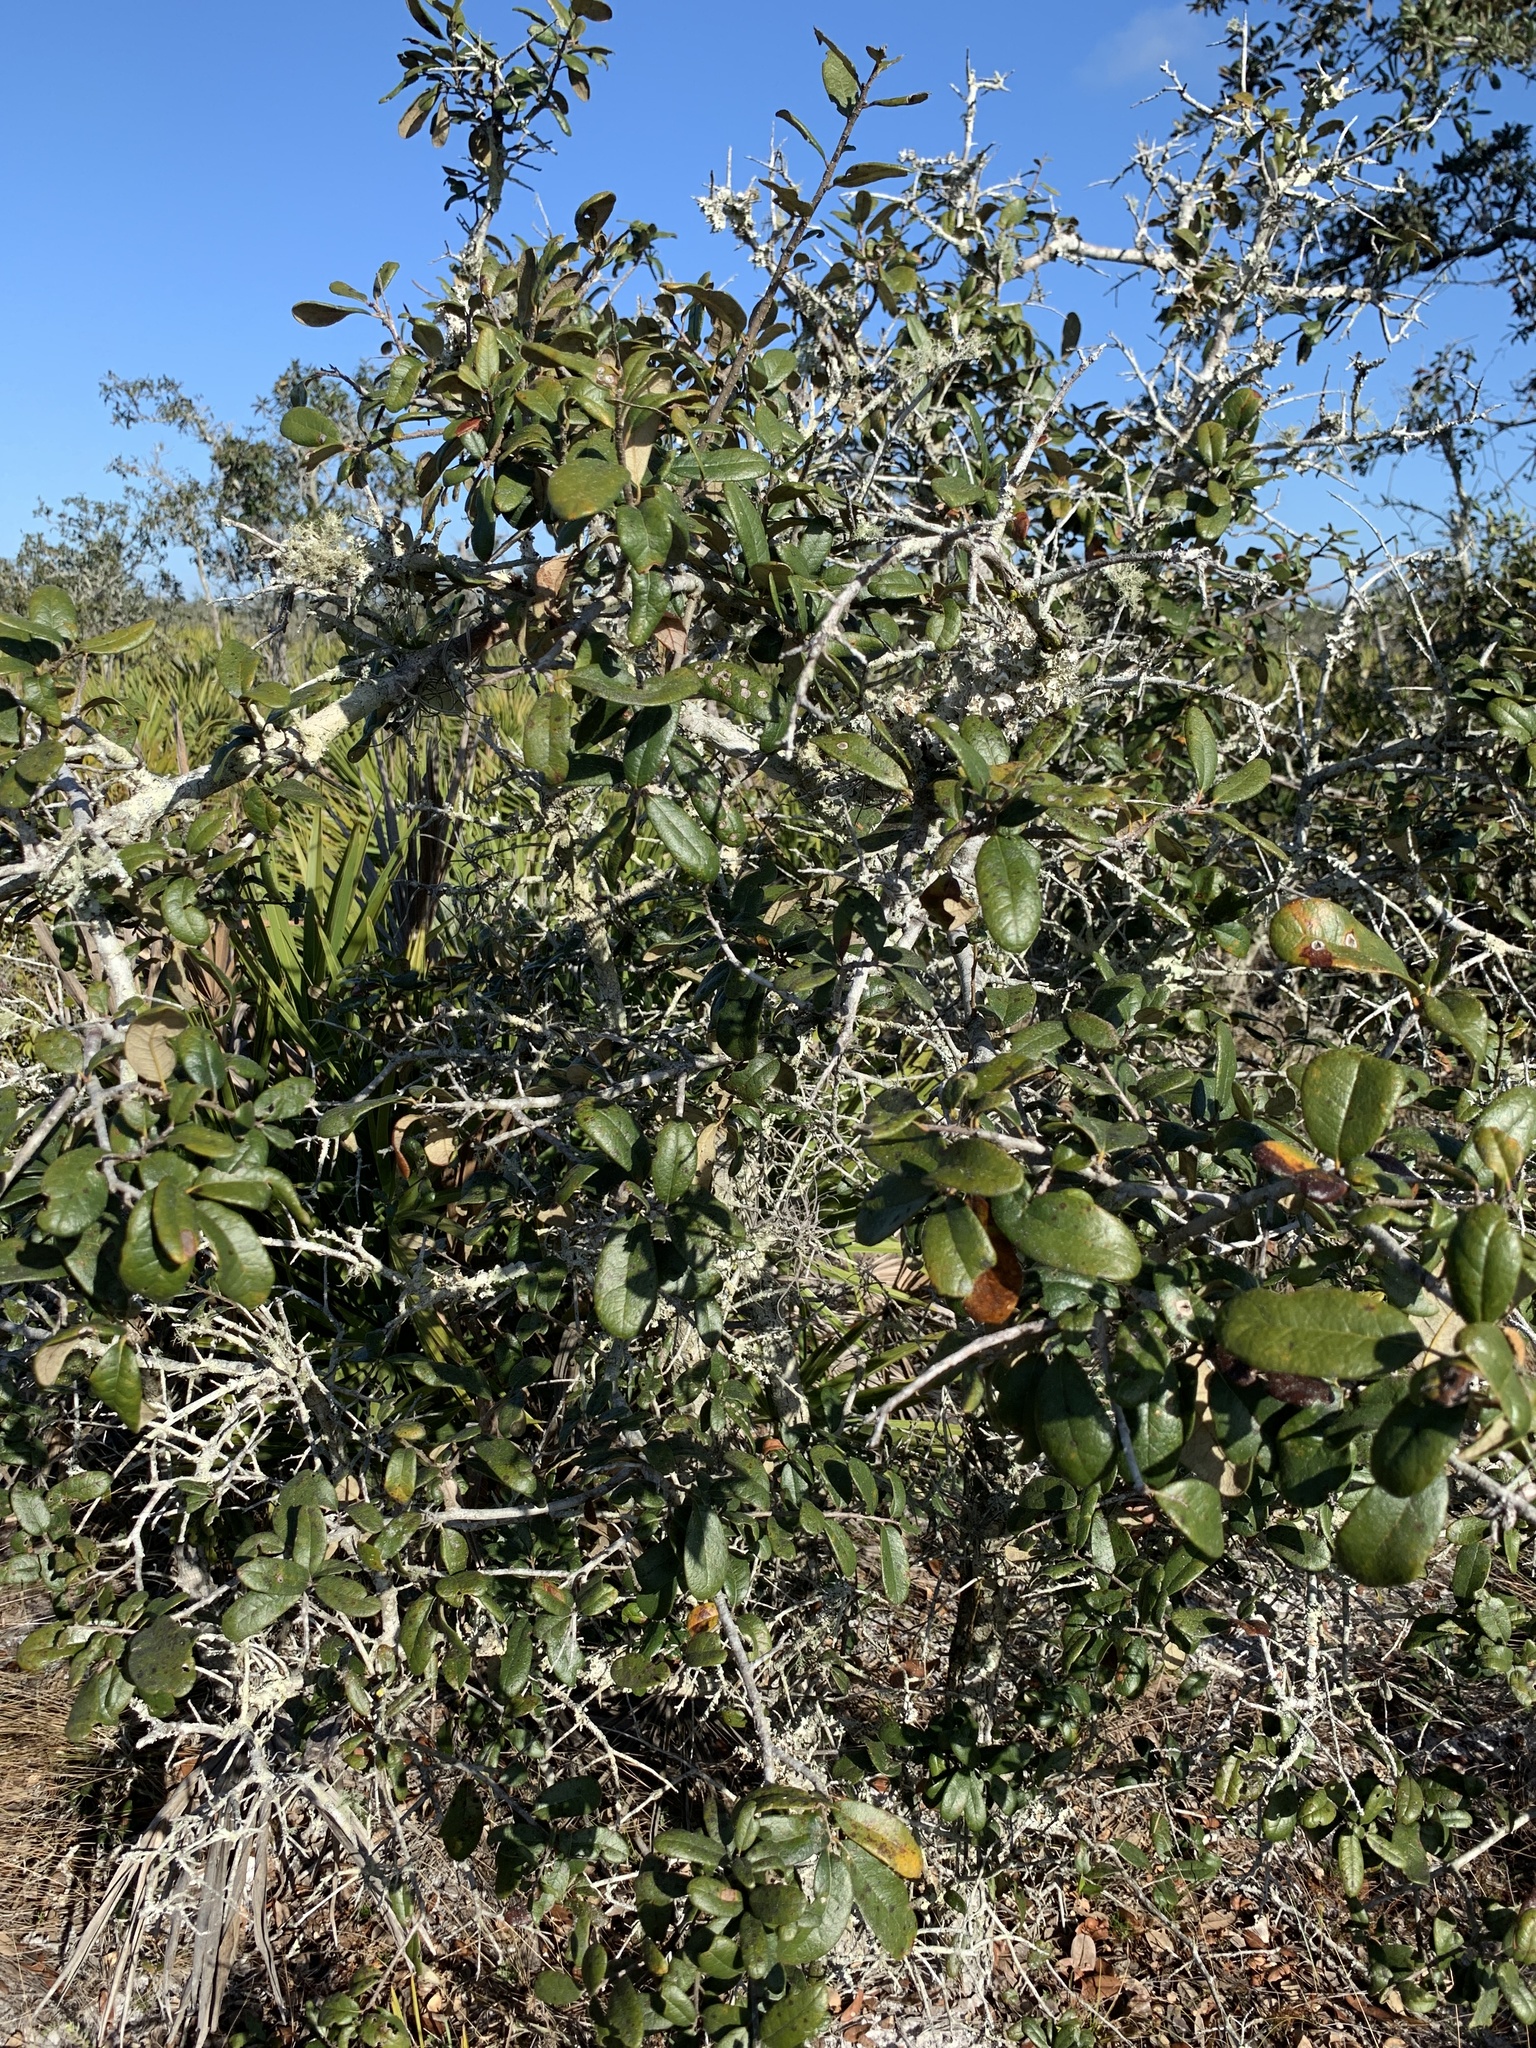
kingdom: Plantae
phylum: Tracheophyta
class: Magnoliopsida
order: Fagales
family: Fagaceae
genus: Quercus
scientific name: Quercus geminata
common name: Sand live oak
